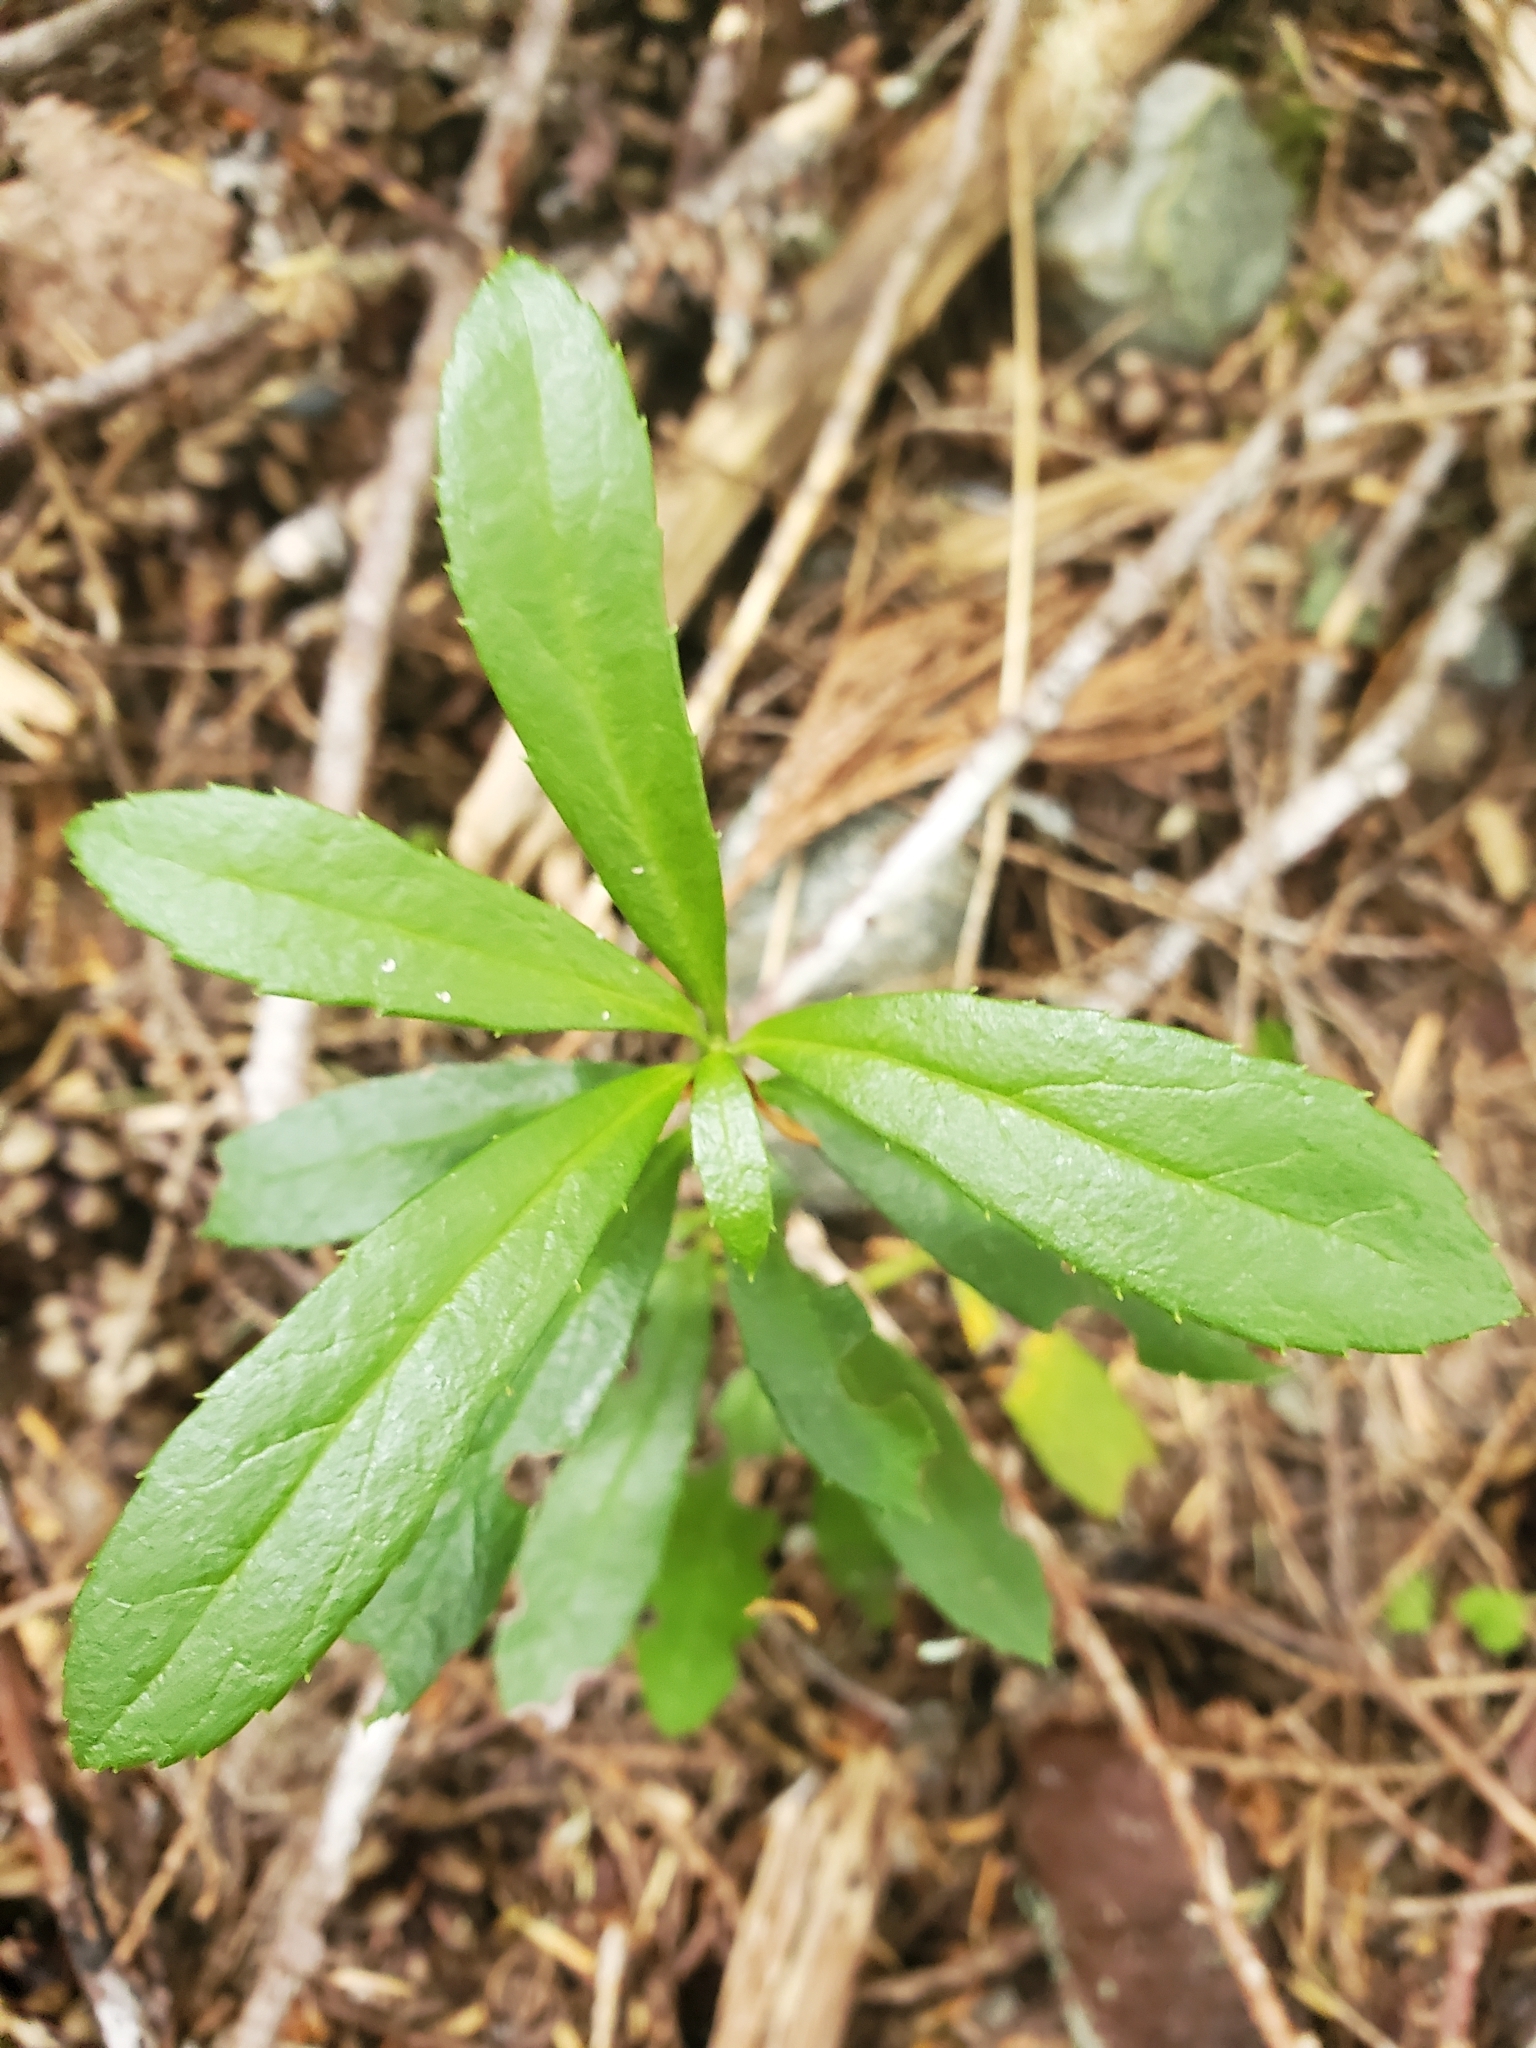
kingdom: Plantae
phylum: Tracheophyta
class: Magnoliopsida
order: Ericales
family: Ericaceae
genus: Chimaphila
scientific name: Chimaphila umbellata
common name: Pipsissewa
